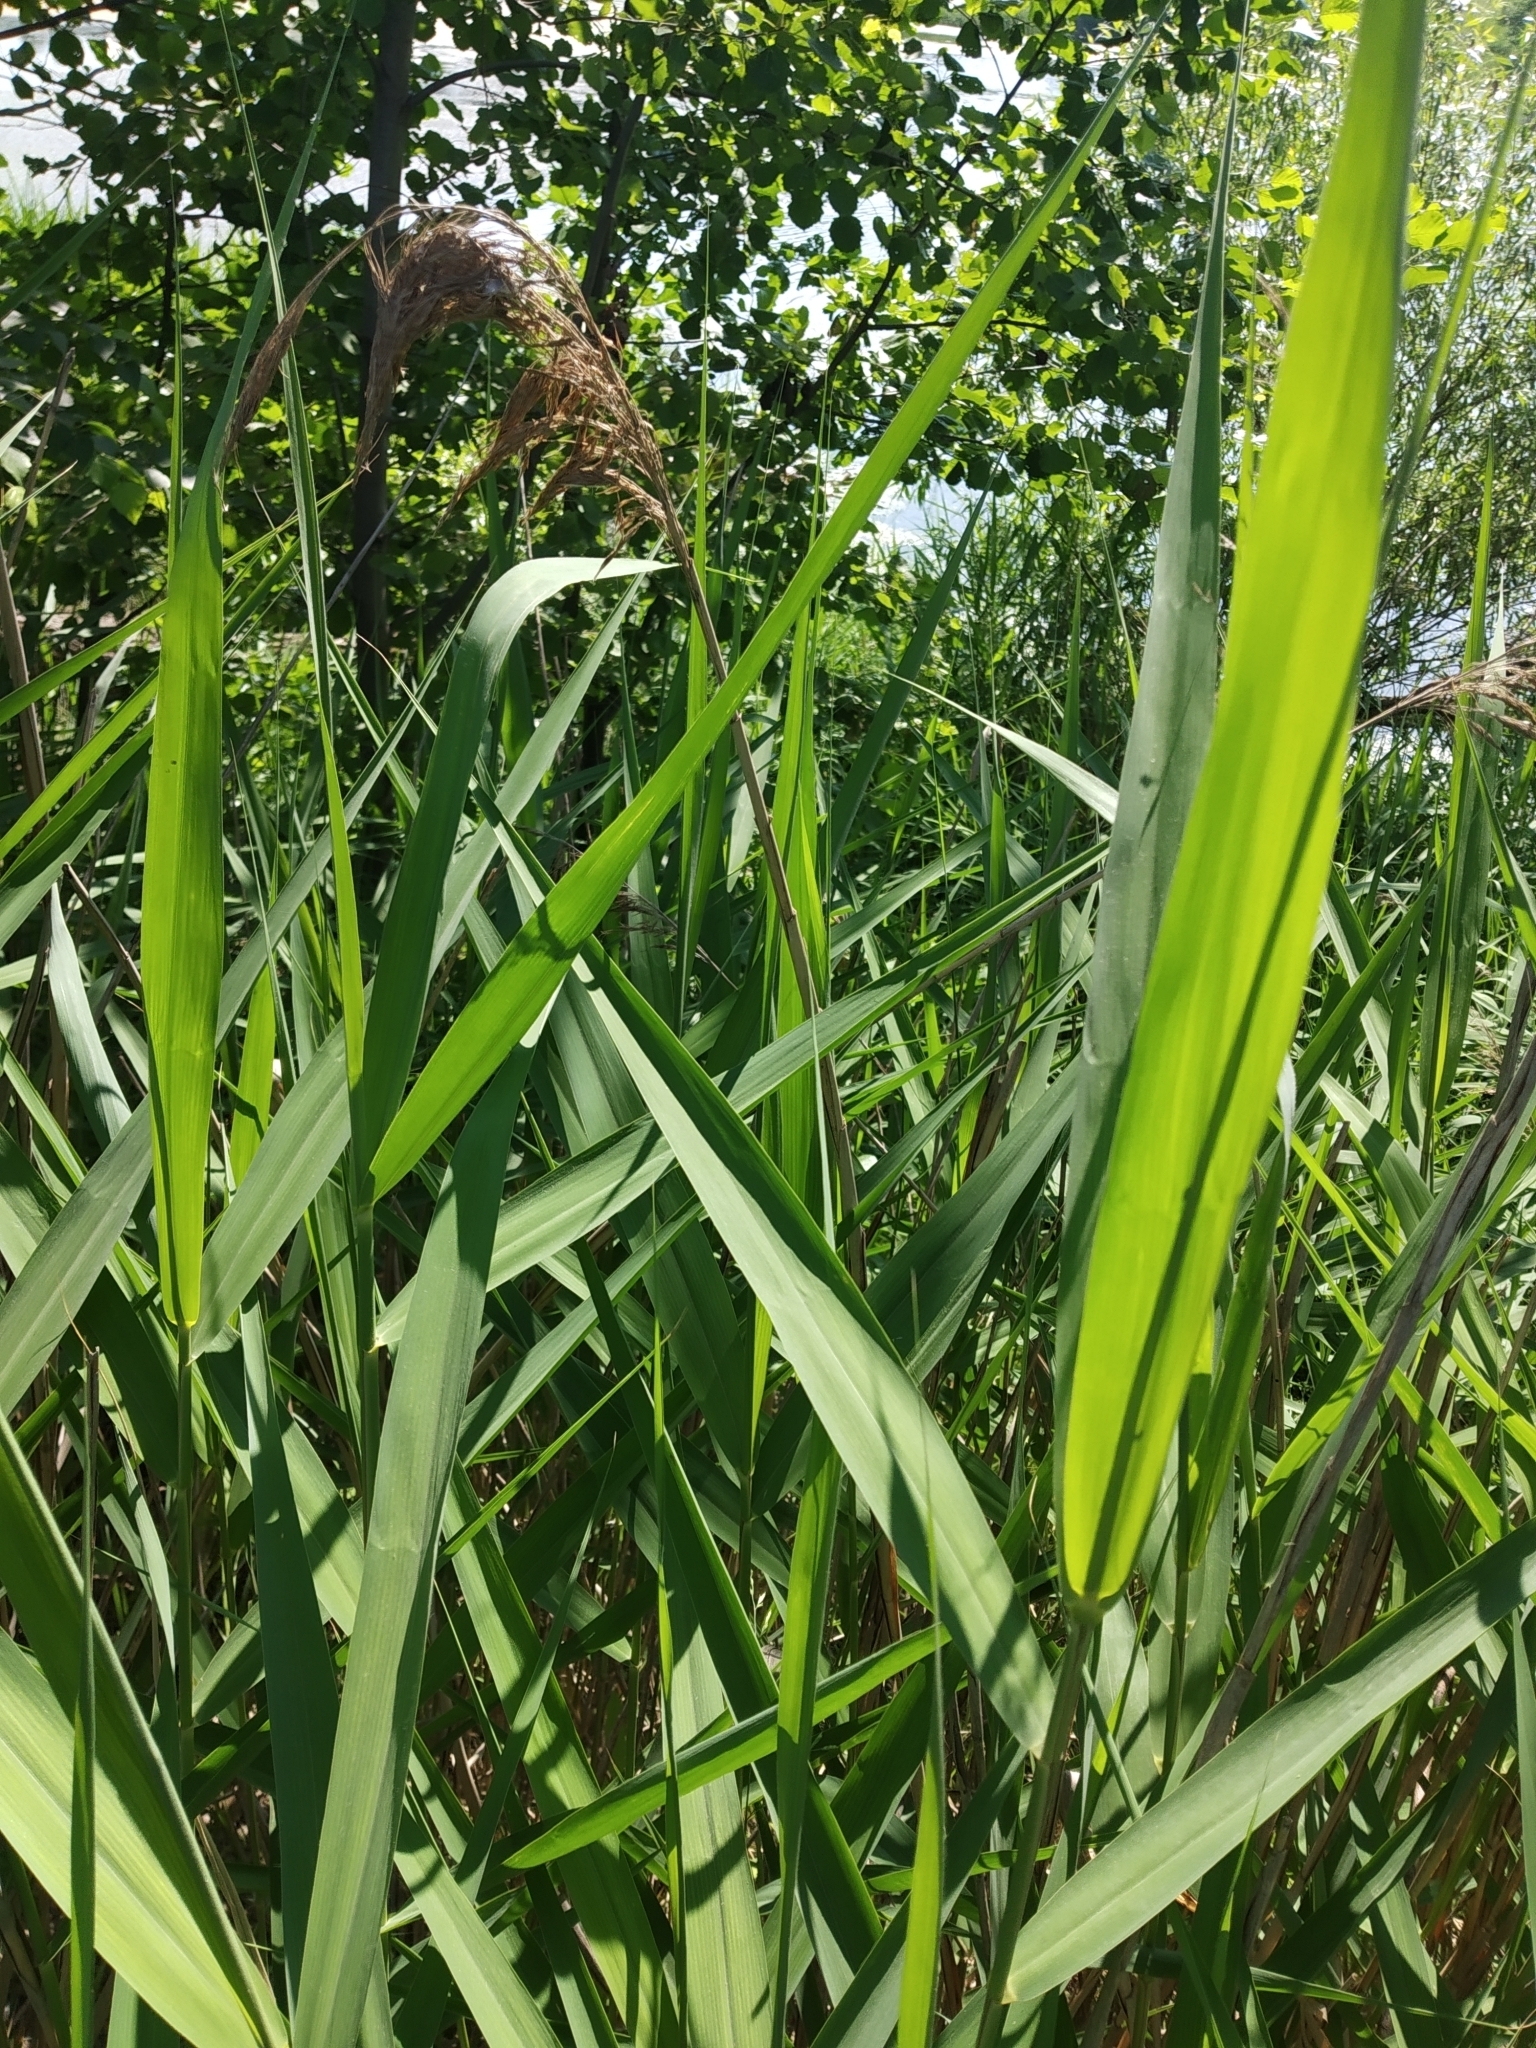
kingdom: Plantae
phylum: Tracheophyta
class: Liliopsida
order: Poales
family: Poaceae
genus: Phragmites
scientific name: Phragmites australis
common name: Common reed
